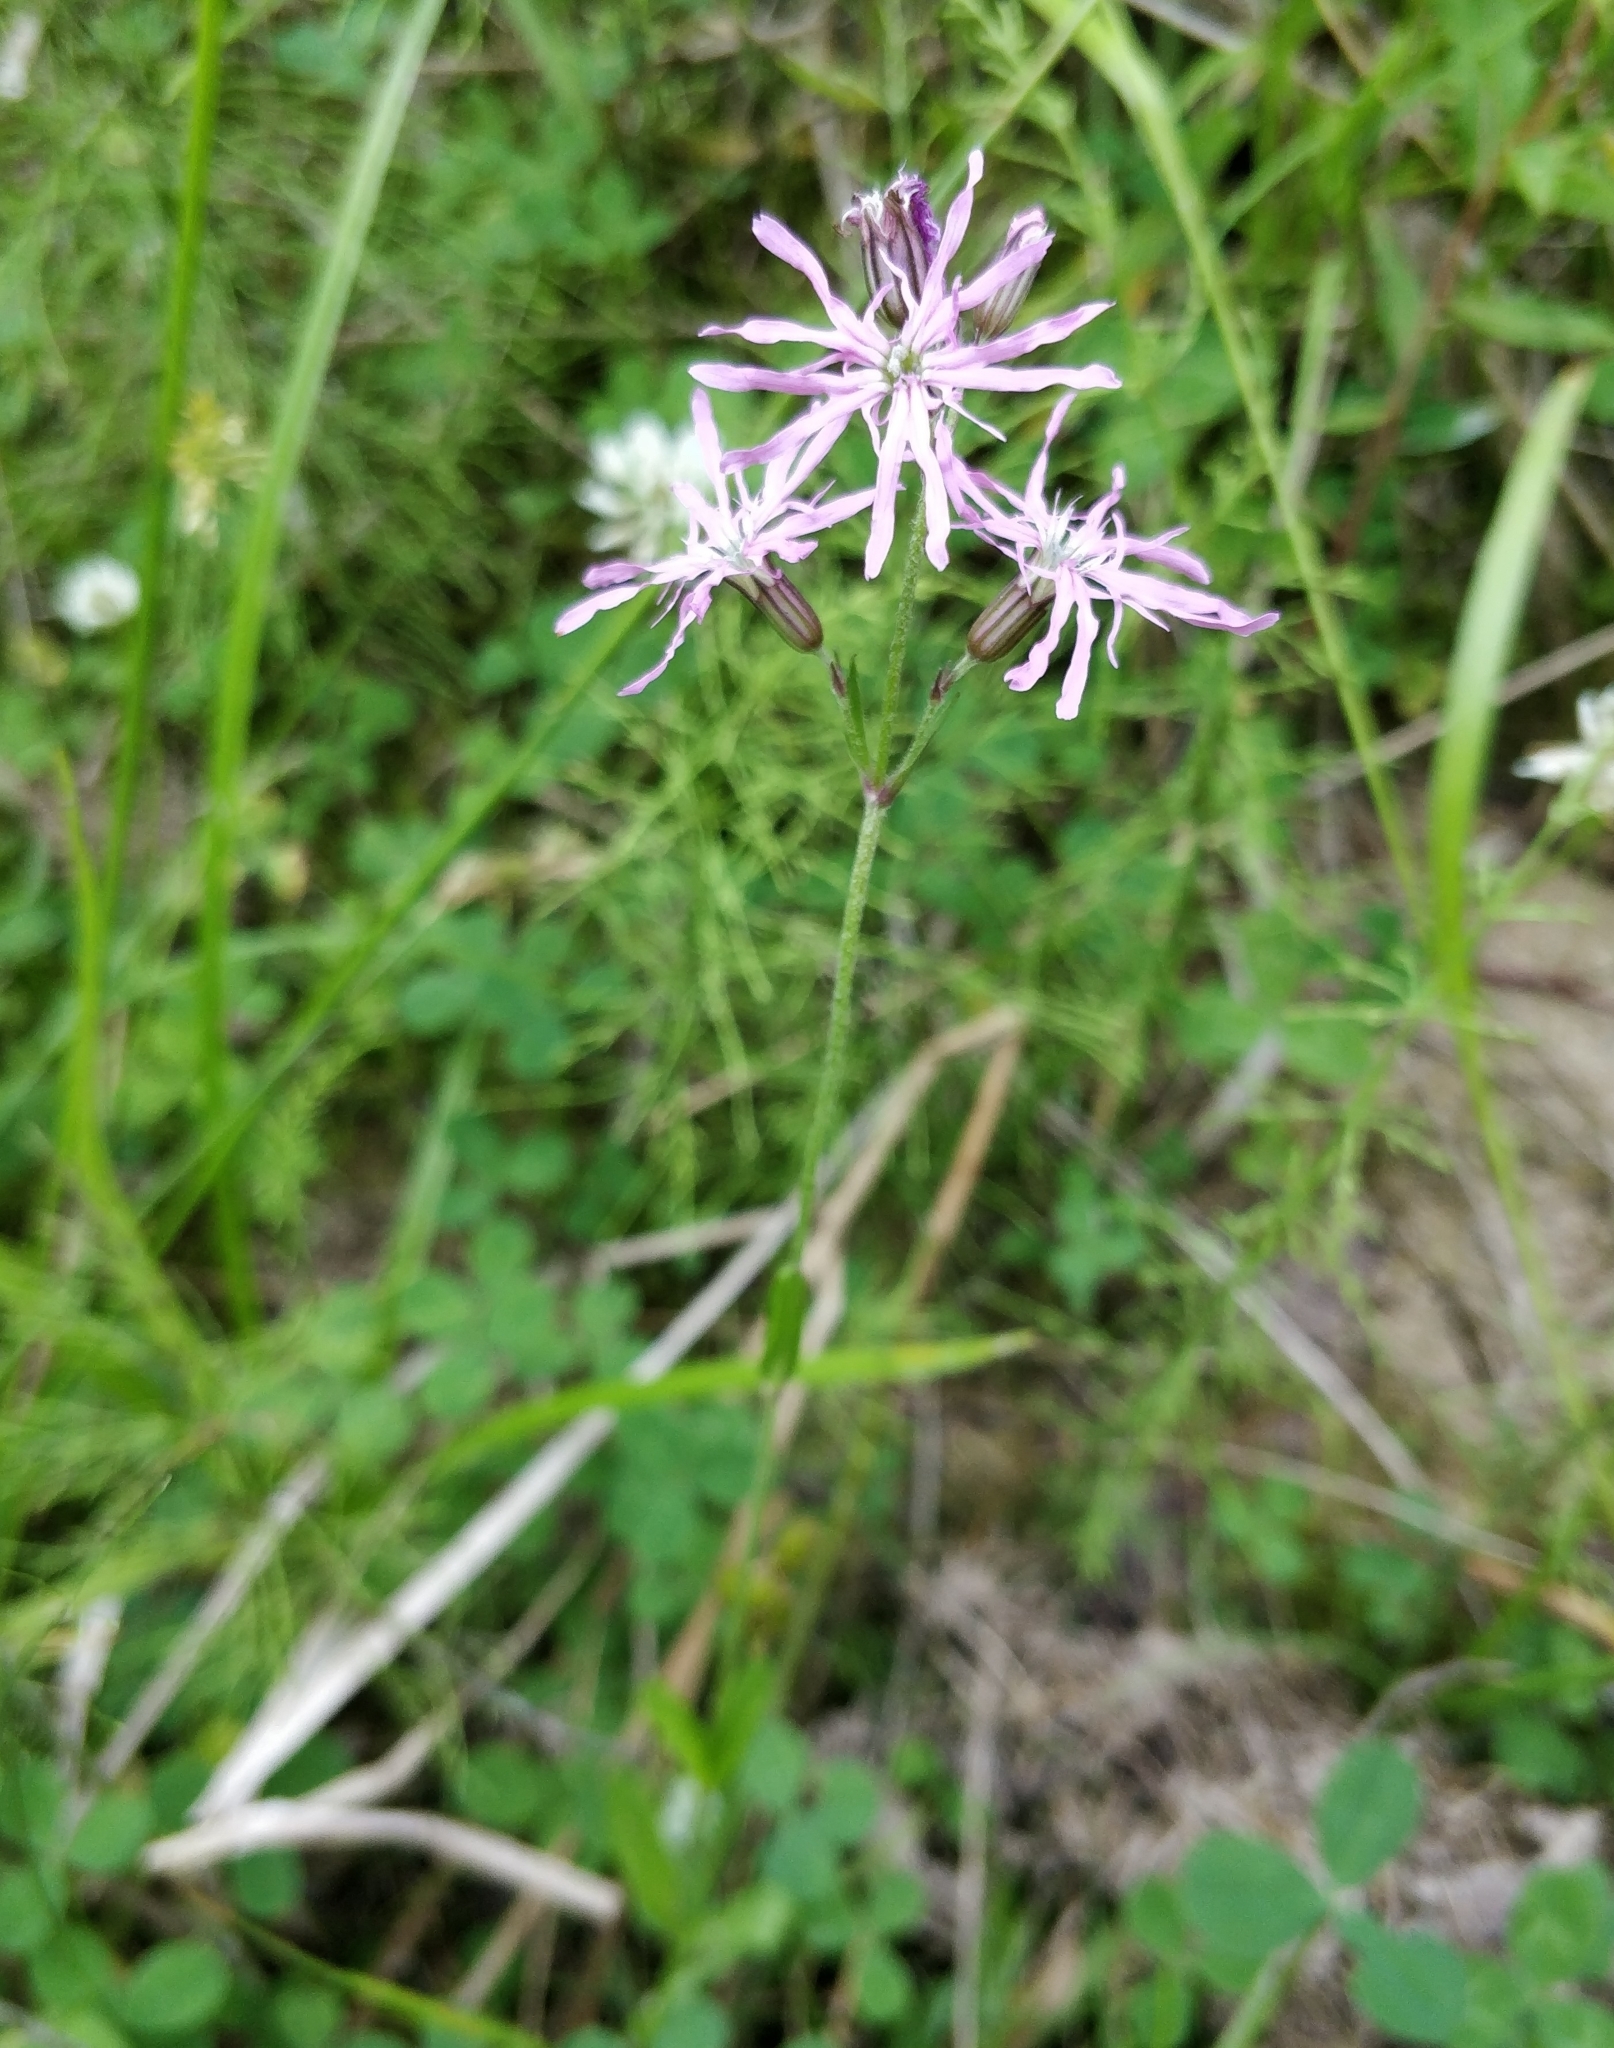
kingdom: Plantae
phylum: Tracheophyta
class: Magnoliopsida
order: Caryophyllales
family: Caryophyllaceae
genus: Silene
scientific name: Silene flos-cuculi
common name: Ragged-robin
